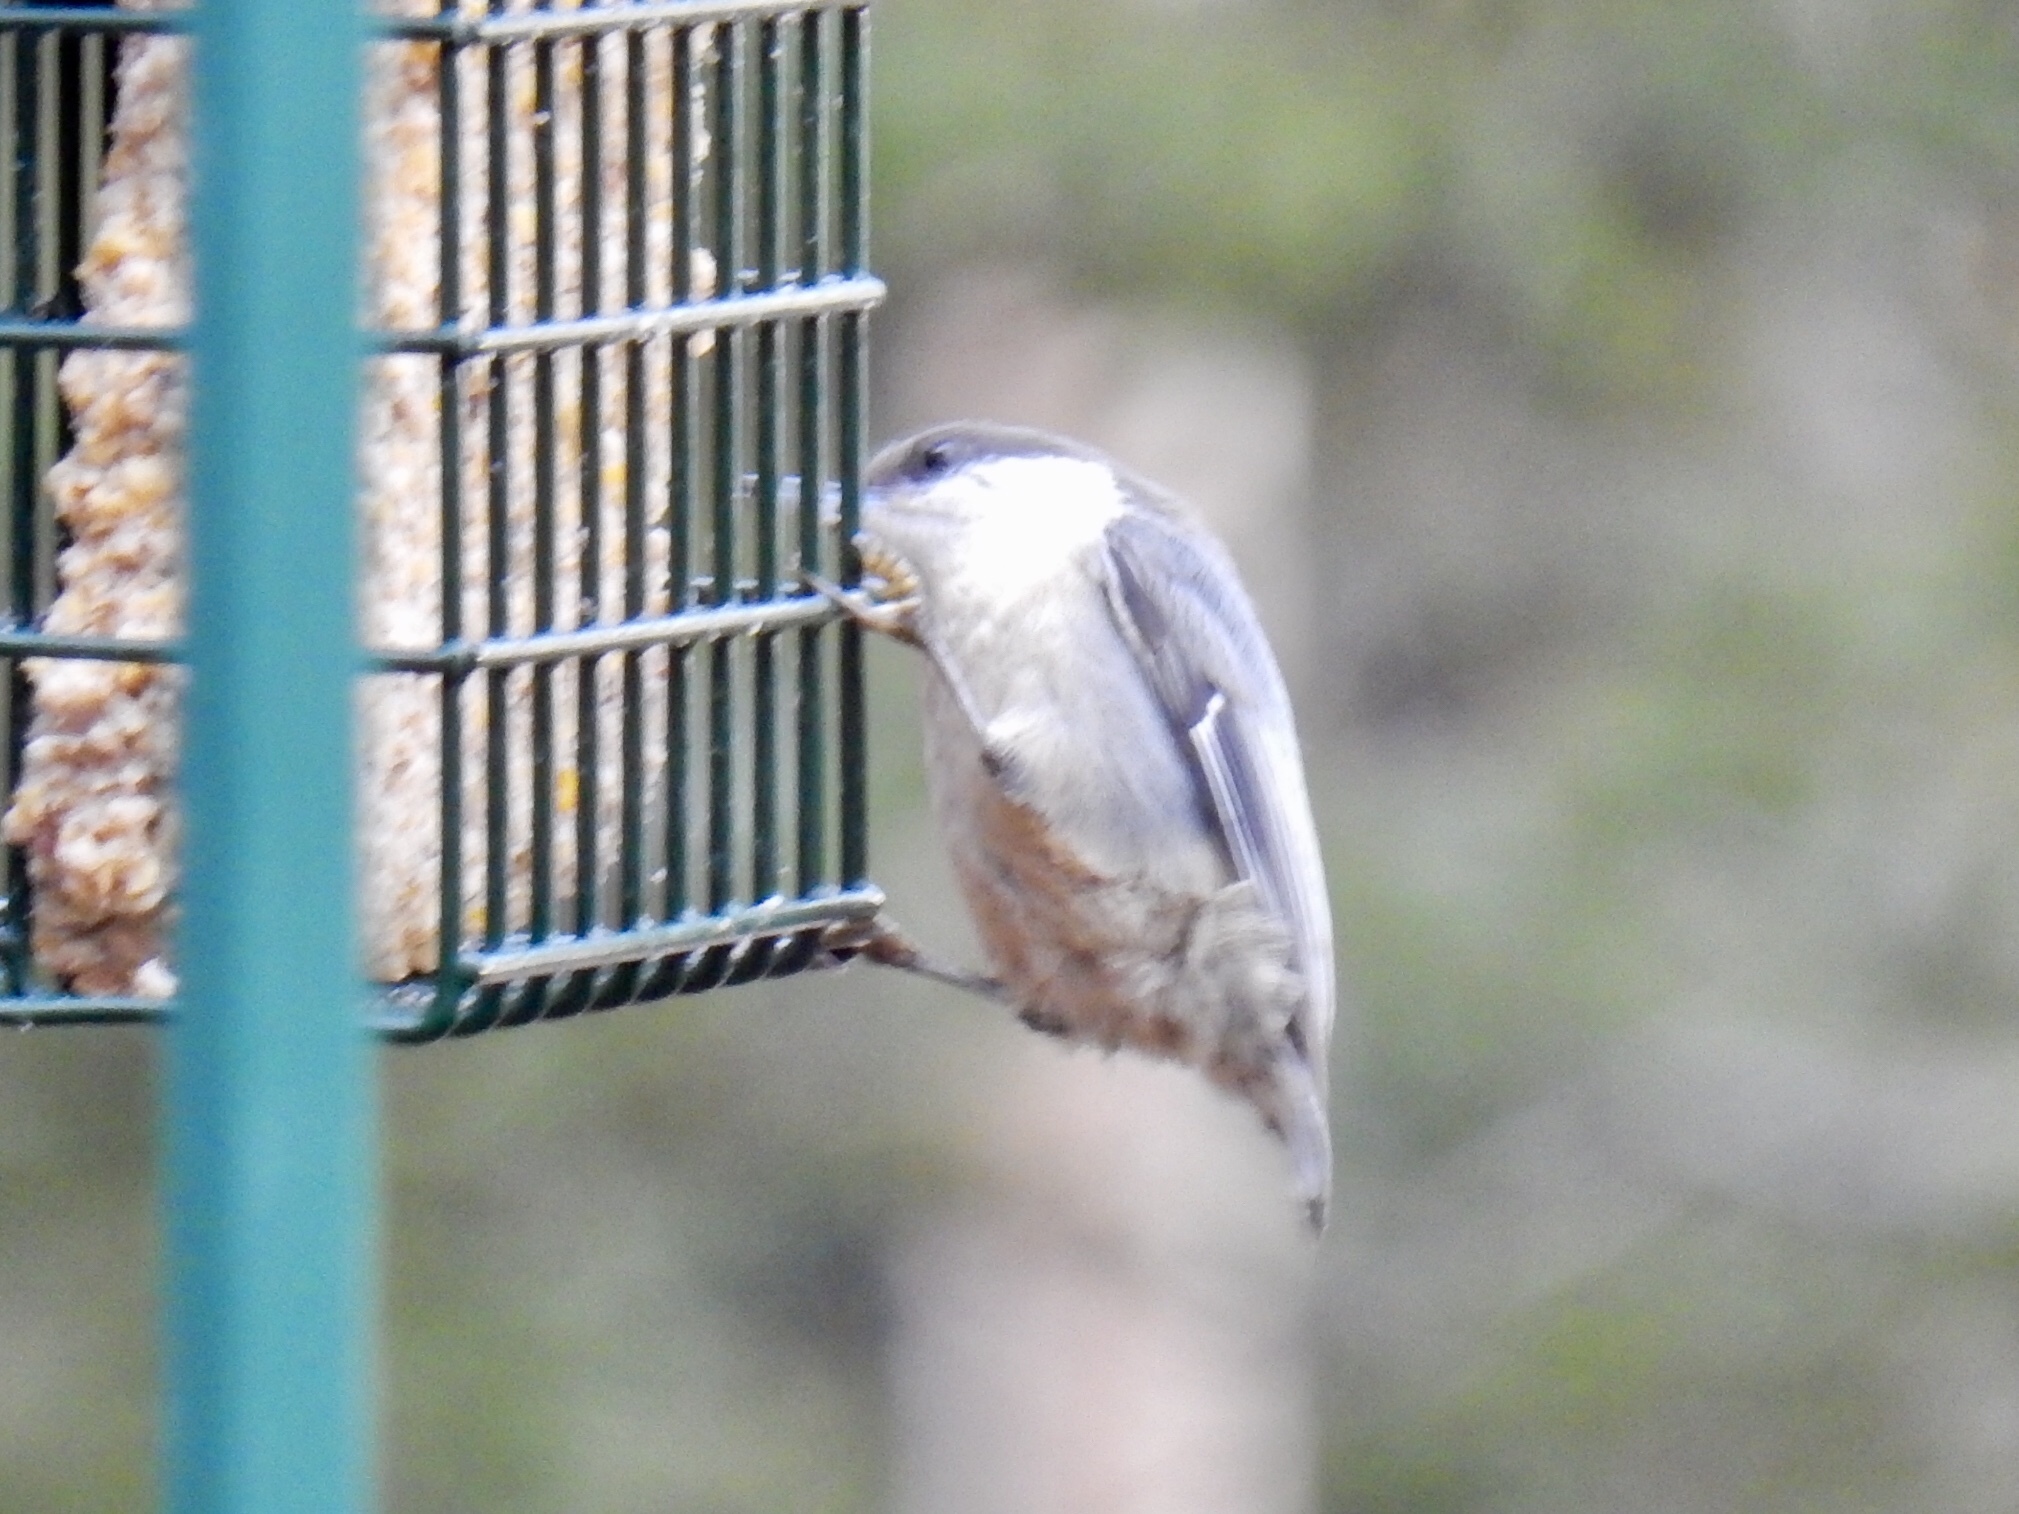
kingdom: Animalia
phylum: Chordata
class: Aves
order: Passeriformes
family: Sittidae
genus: Sitta
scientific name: Sitta pygmaea
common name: Pygmy nuthatch
